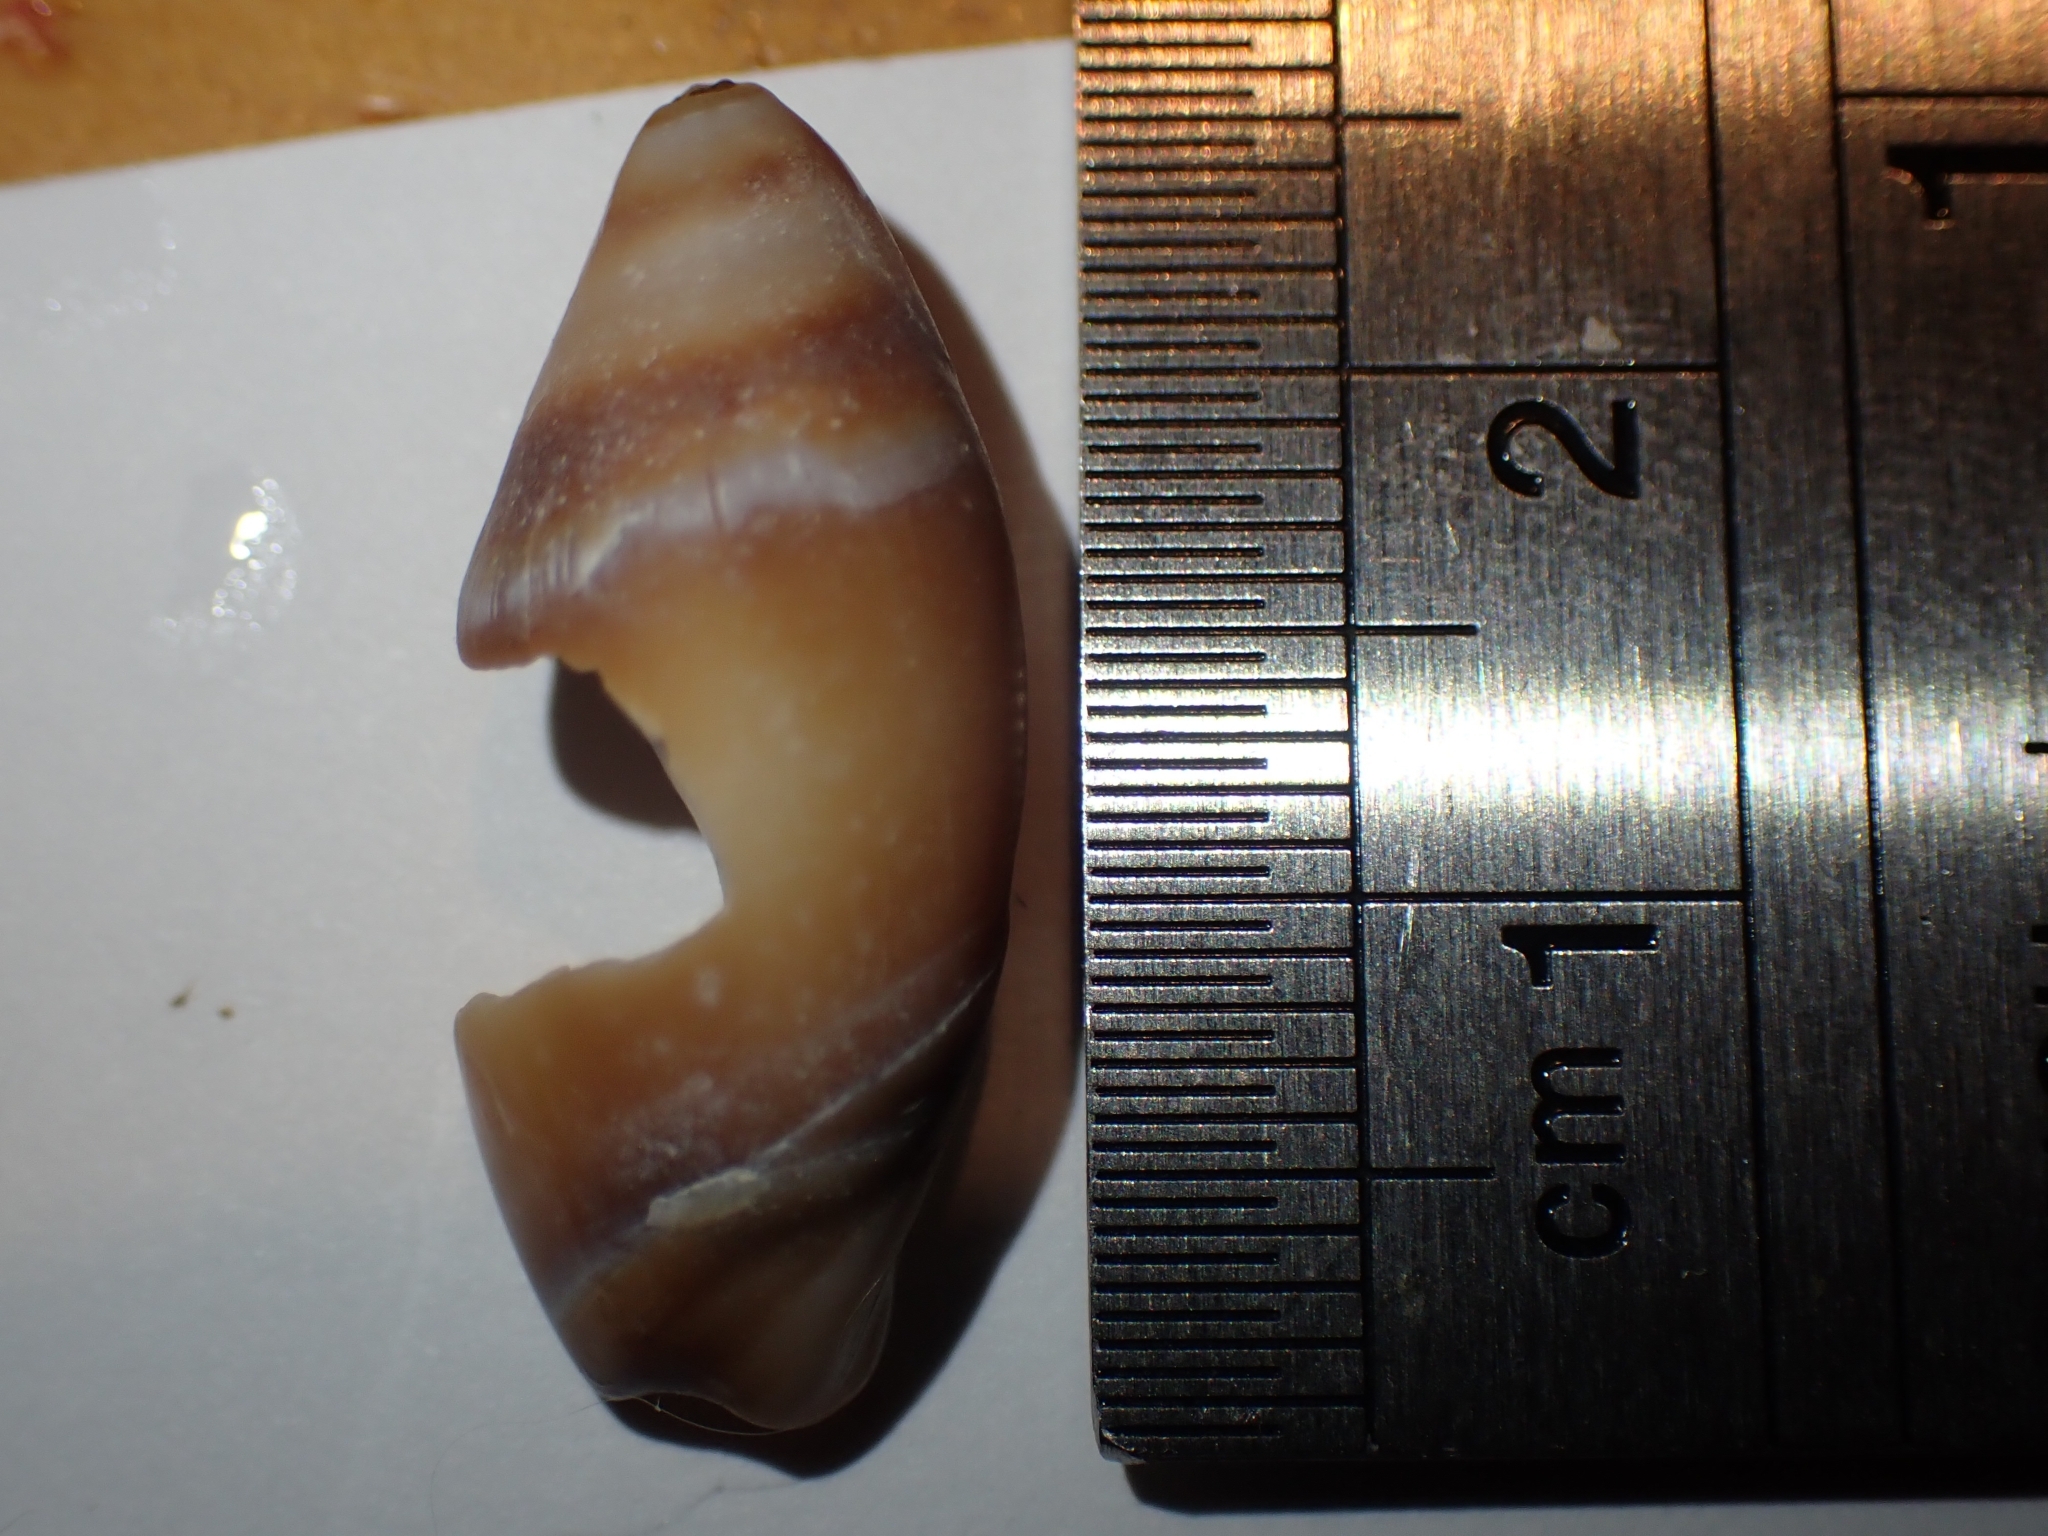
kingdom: Animalia
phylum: Mollusca
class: Gastropoda
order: Neogastropoda
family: Ancillariidae
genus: Amalda
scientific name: Amalda australis
